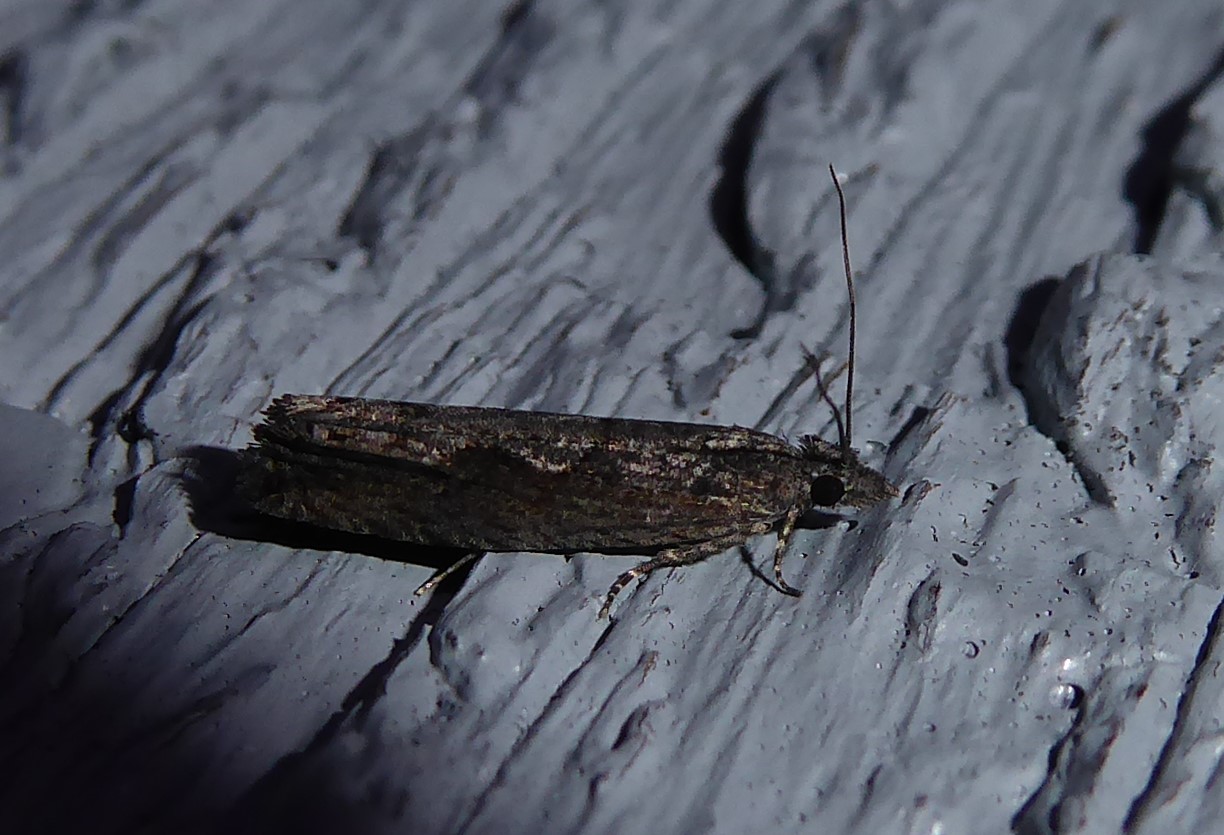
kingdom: Animalia
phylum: Arthropoda
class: Insecta
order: Lepidoptera
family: Tortricidae
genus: Strepsicrates
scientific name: Strepsicrates macropetana
